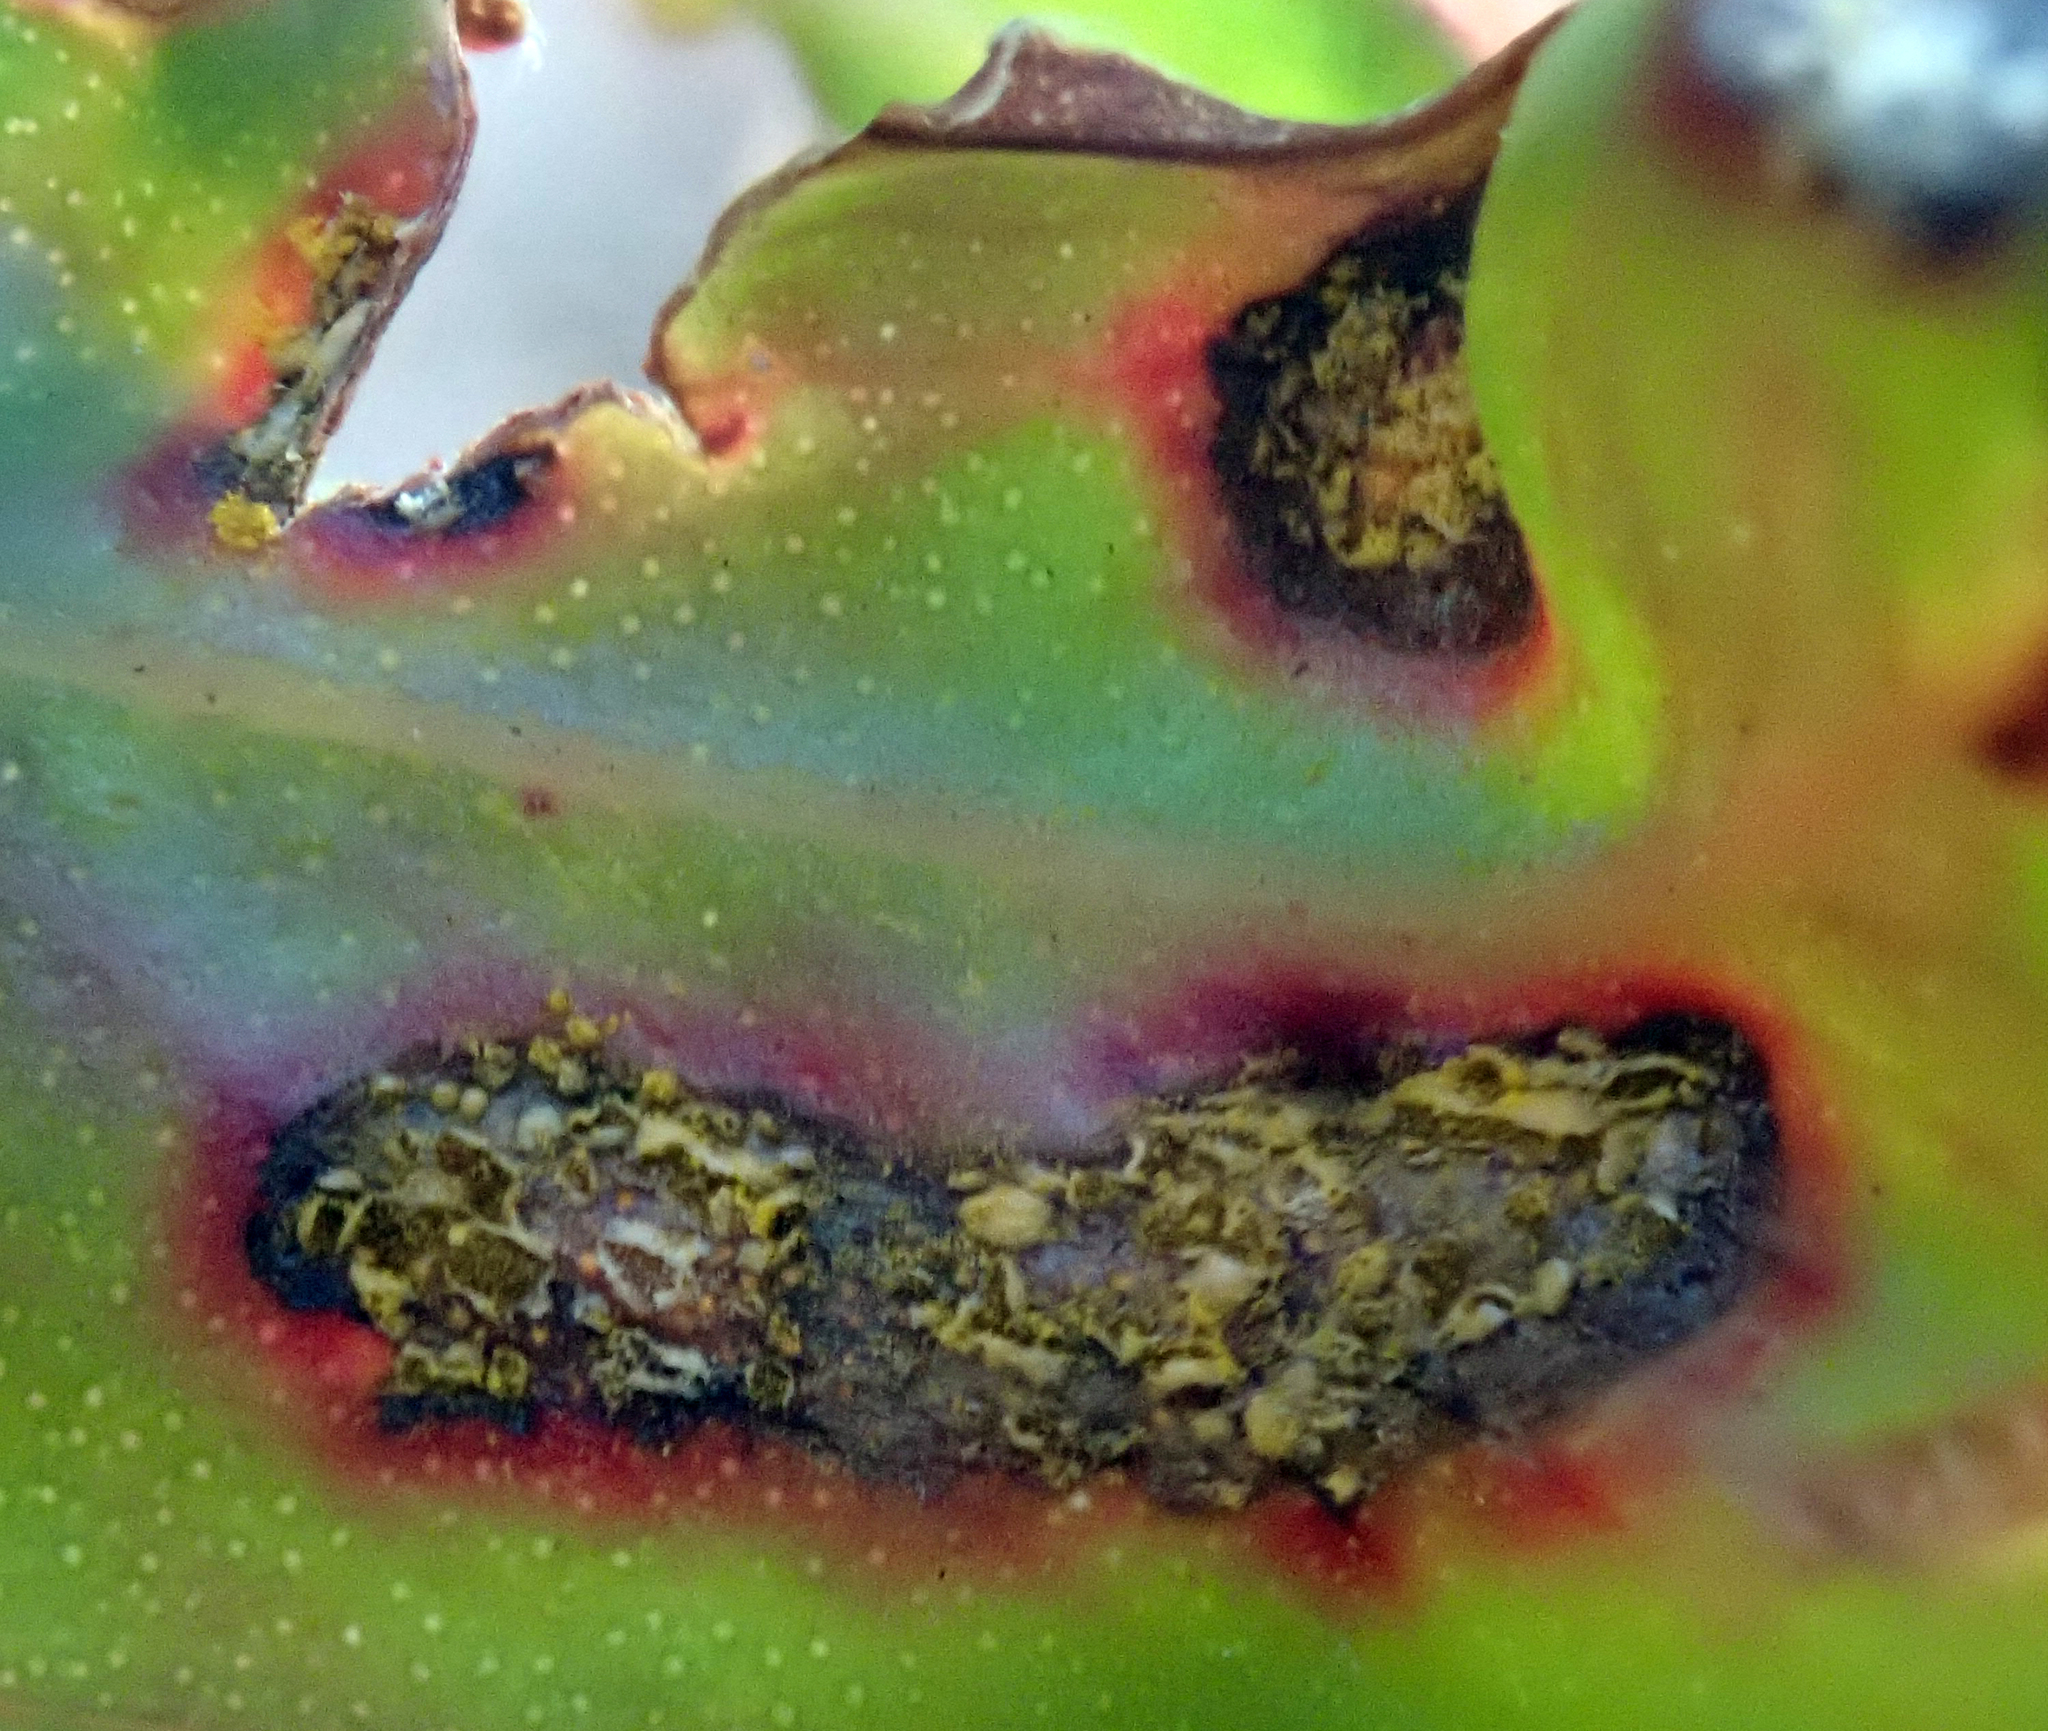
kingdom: Fungi
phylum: Basidiomycota
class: Pucciniomycetes
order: Pucciniales
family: Sphaerophragmiaceae
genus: Austropuccinia
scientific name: Austropuccinia psidii
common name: Myrtle rust
